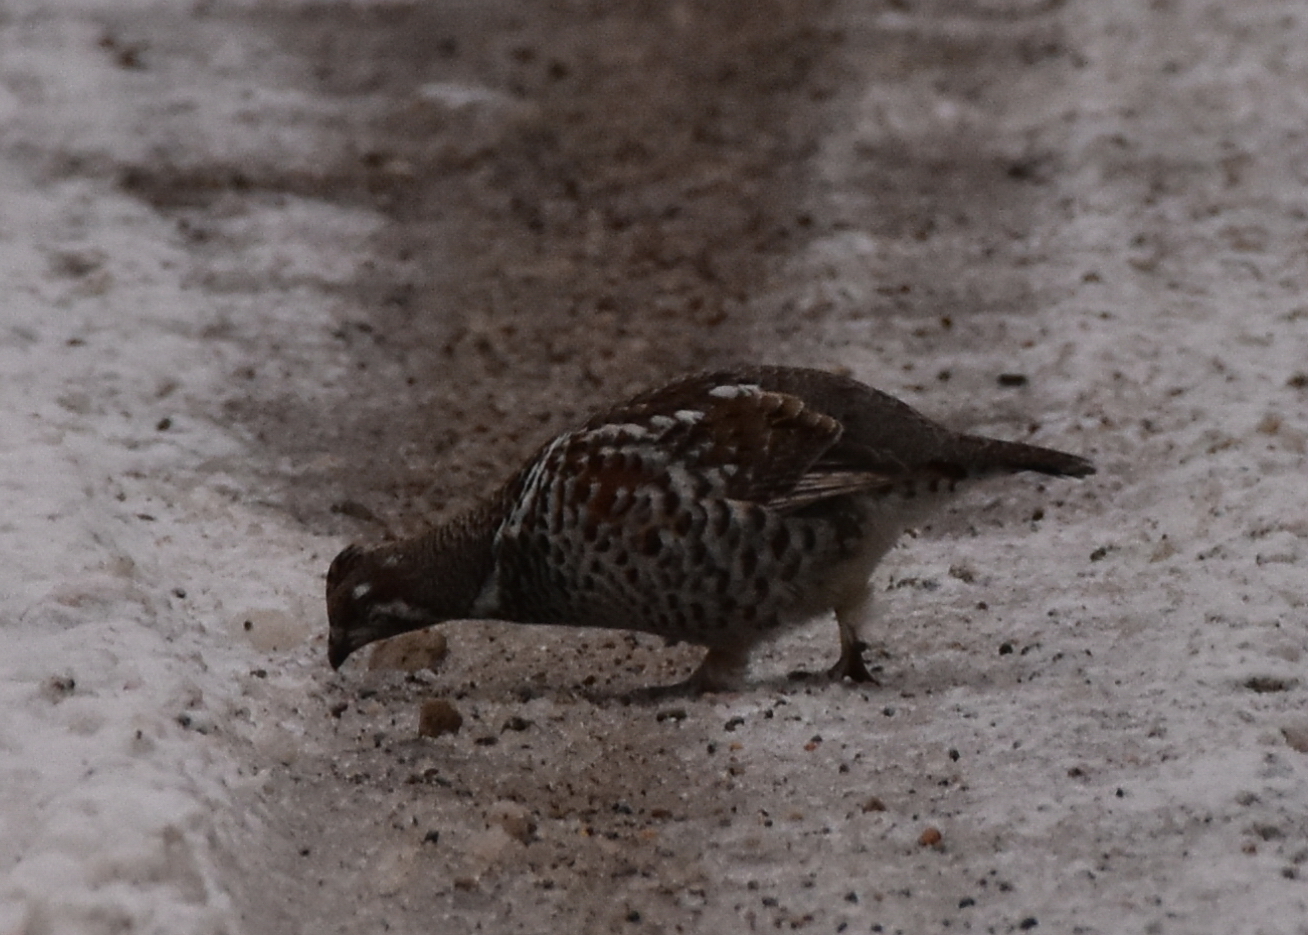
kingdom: Animalia
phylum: Chordata
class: Aves
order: Galliformes
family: Phasianidae
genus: Tetrastes
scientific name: Tetrastes bonasia
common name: Hazel grouse
